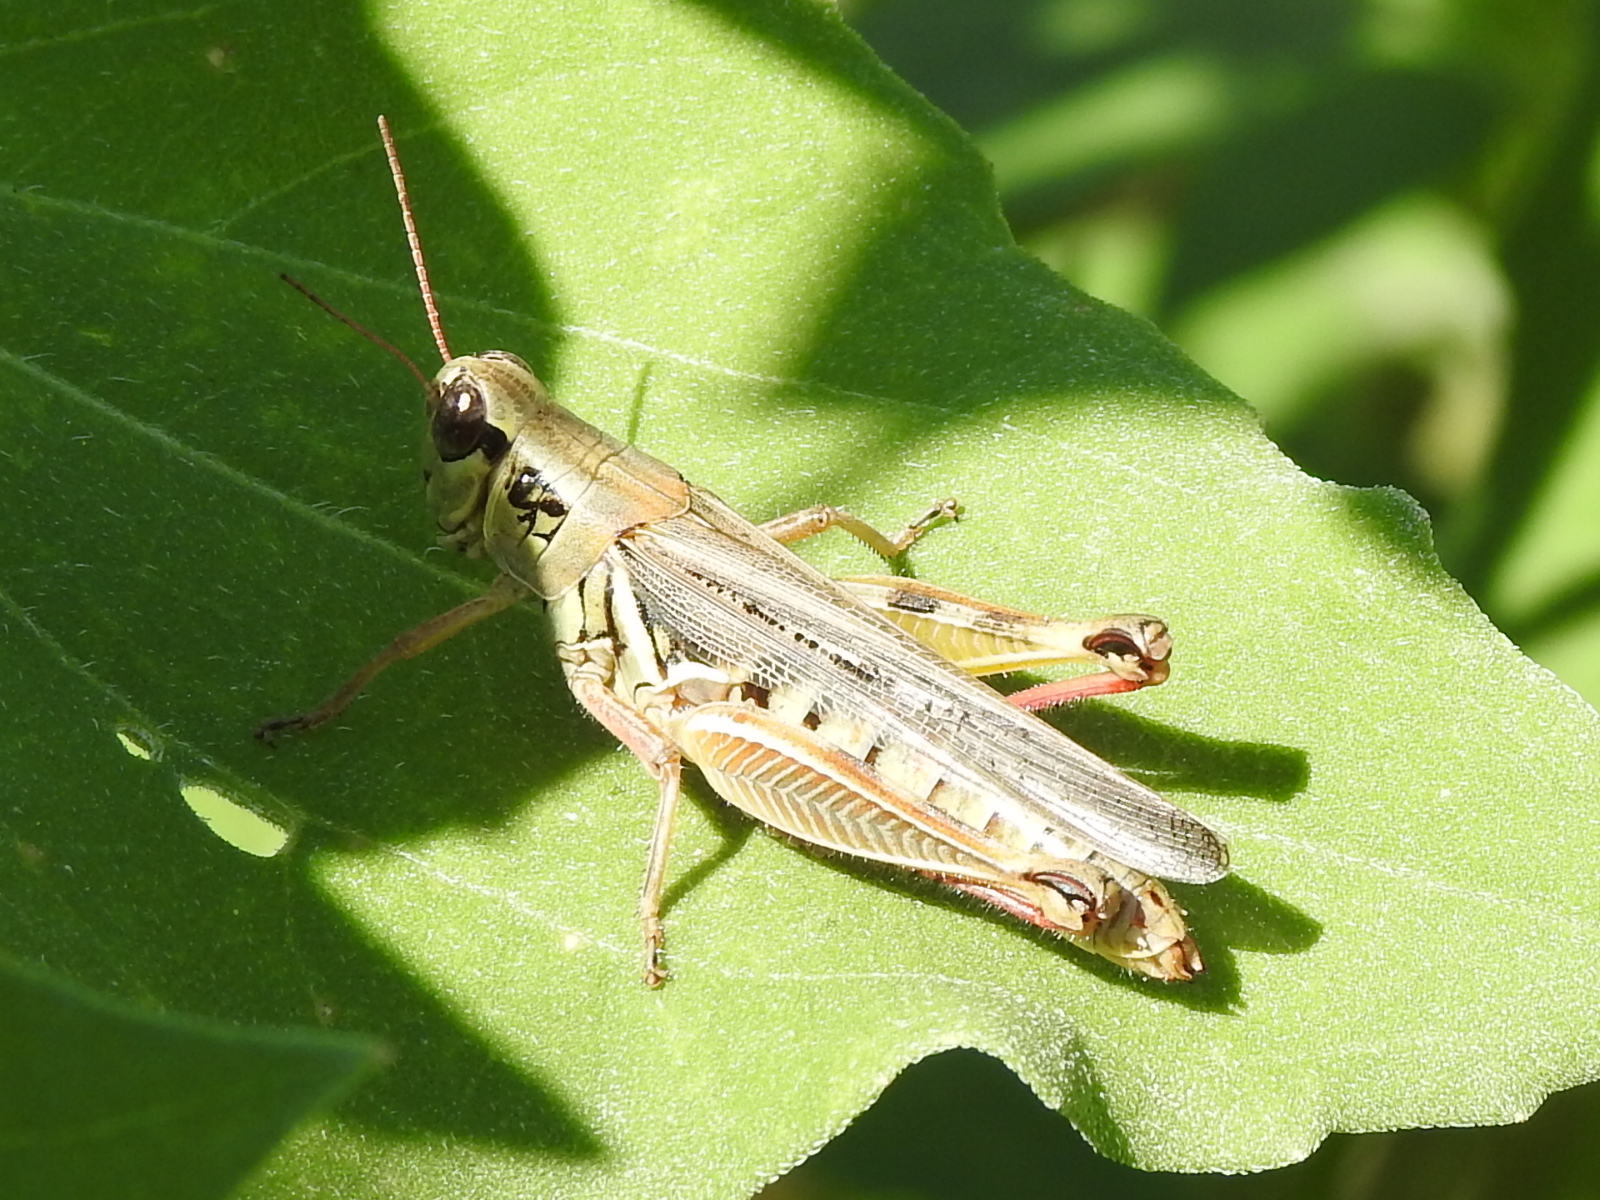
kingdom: Animalia
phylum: Arthropoda
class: Insecta
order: Orthoptera
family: Acrididae
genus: Melanoplus
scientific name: Melanoplus femurrubrum
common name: Red-legged grasshopper
